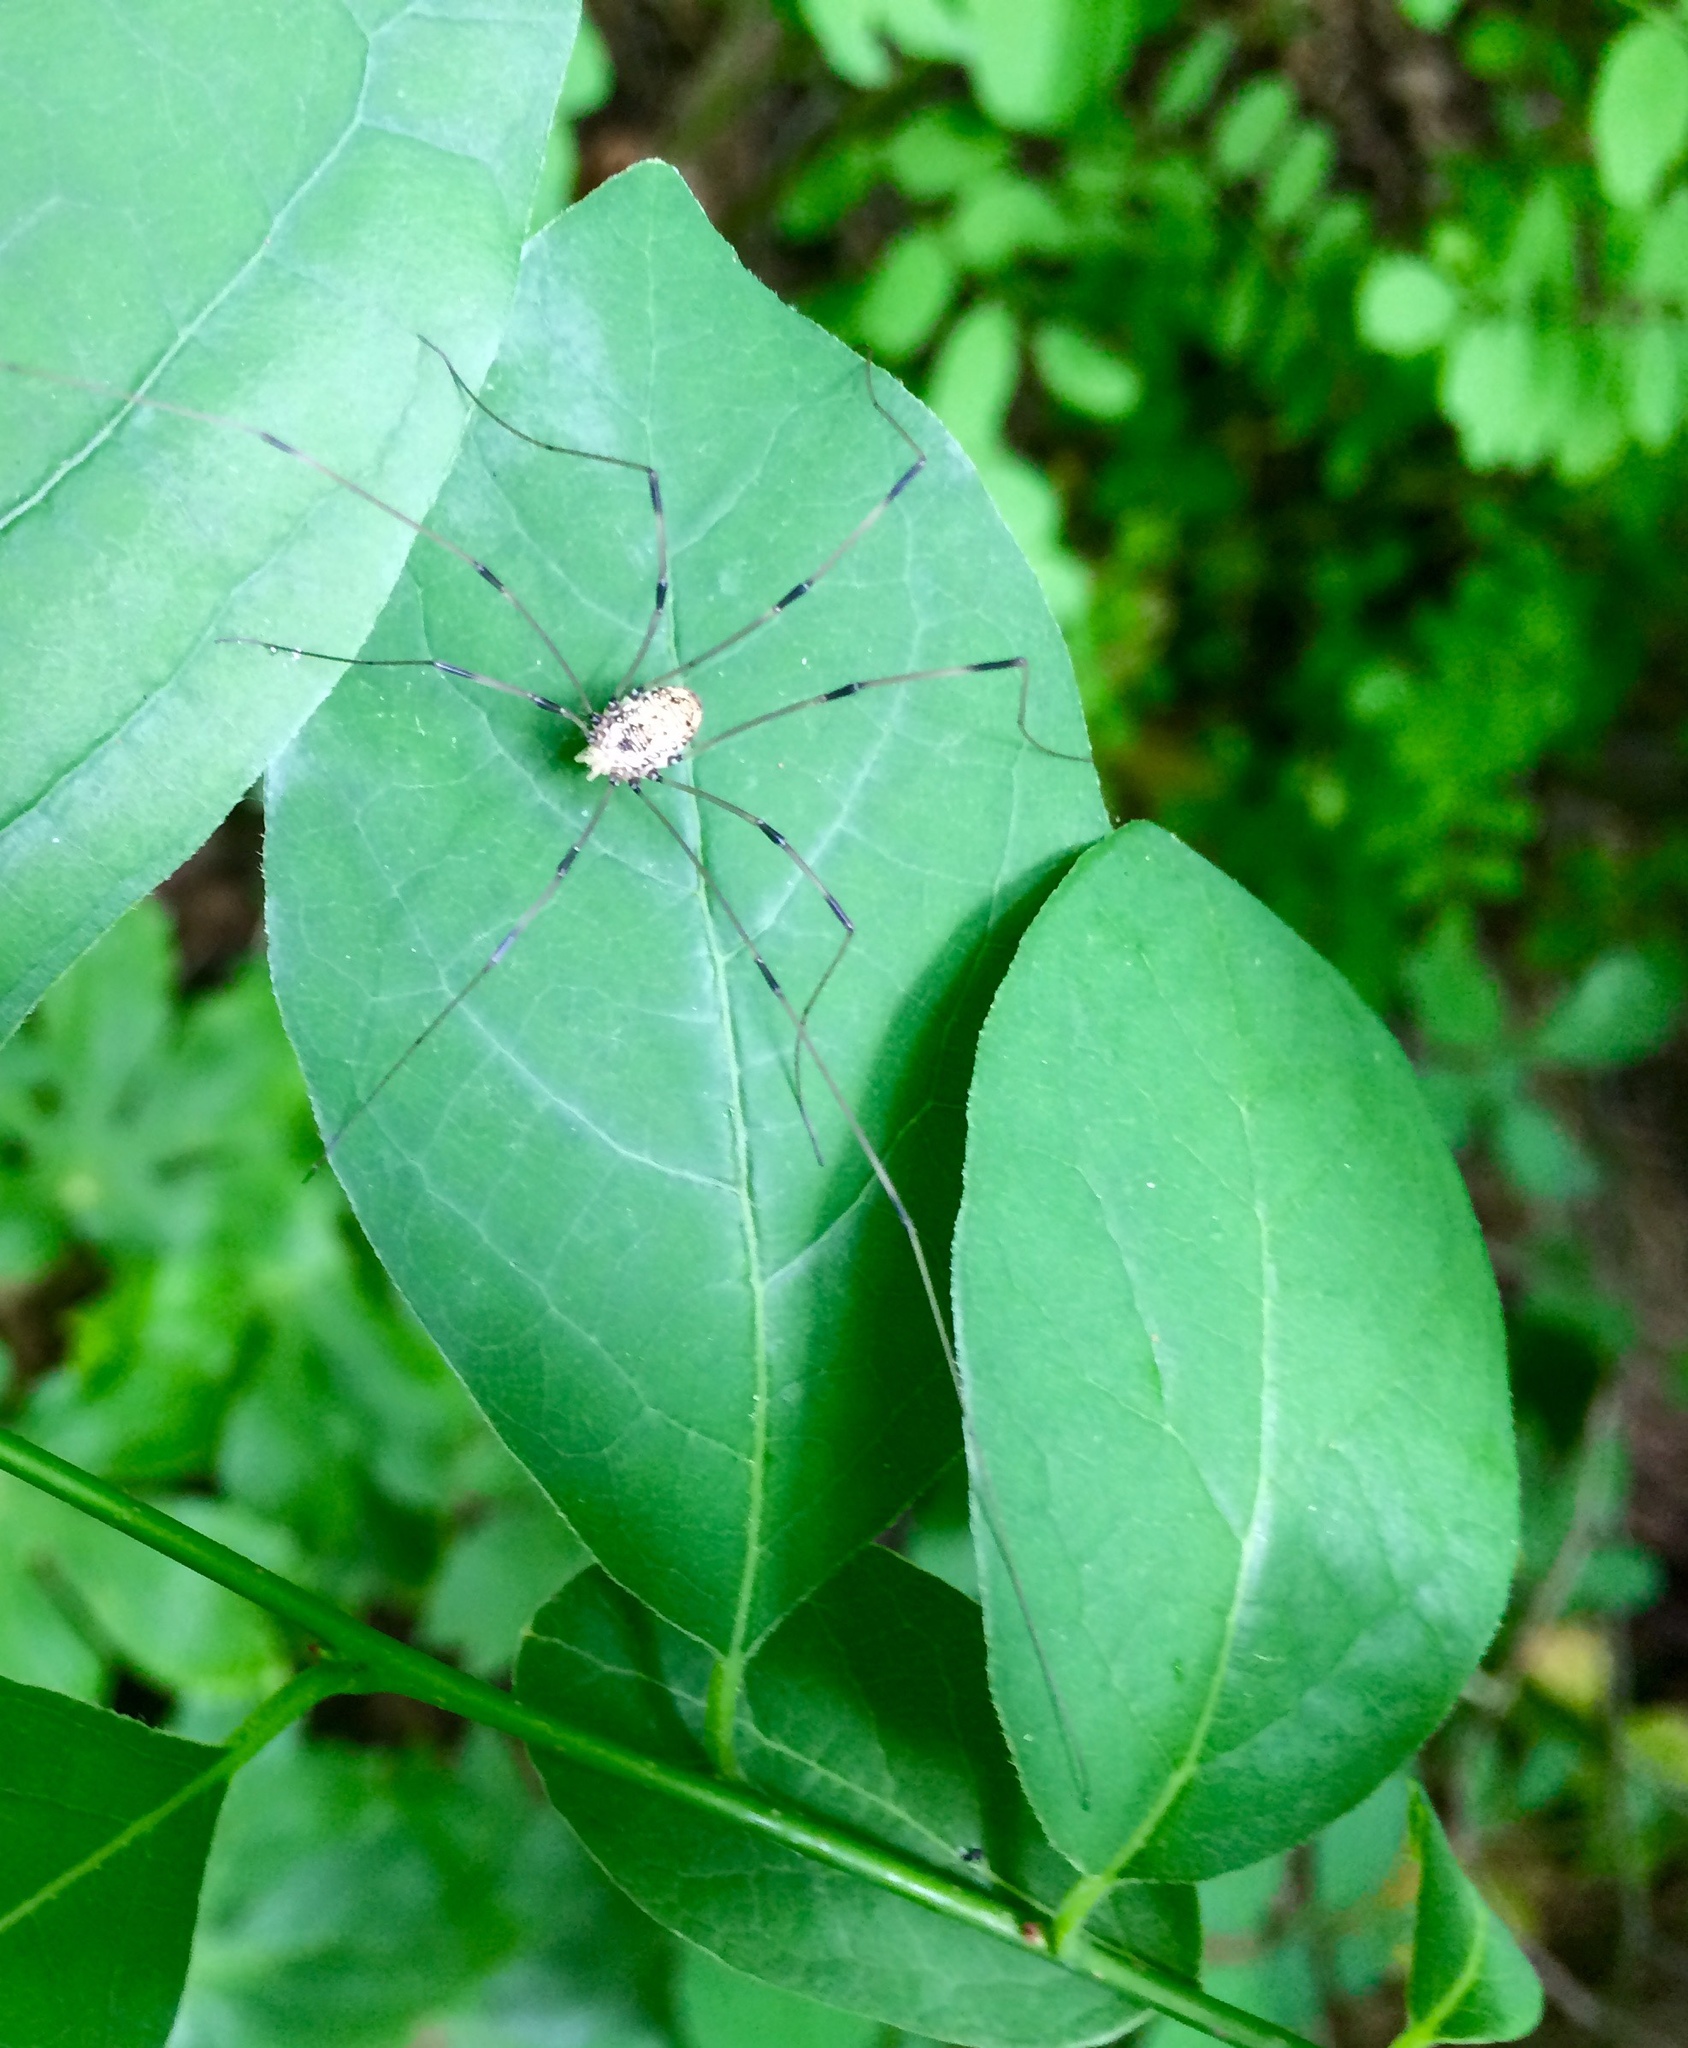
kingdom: Animalia
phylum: Arthropoda
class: Arachnida
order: Opiliones
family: Sclerosomatidae
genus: Leiobunum
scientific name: Leiobunum vittatum
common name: Eastern harvestman
